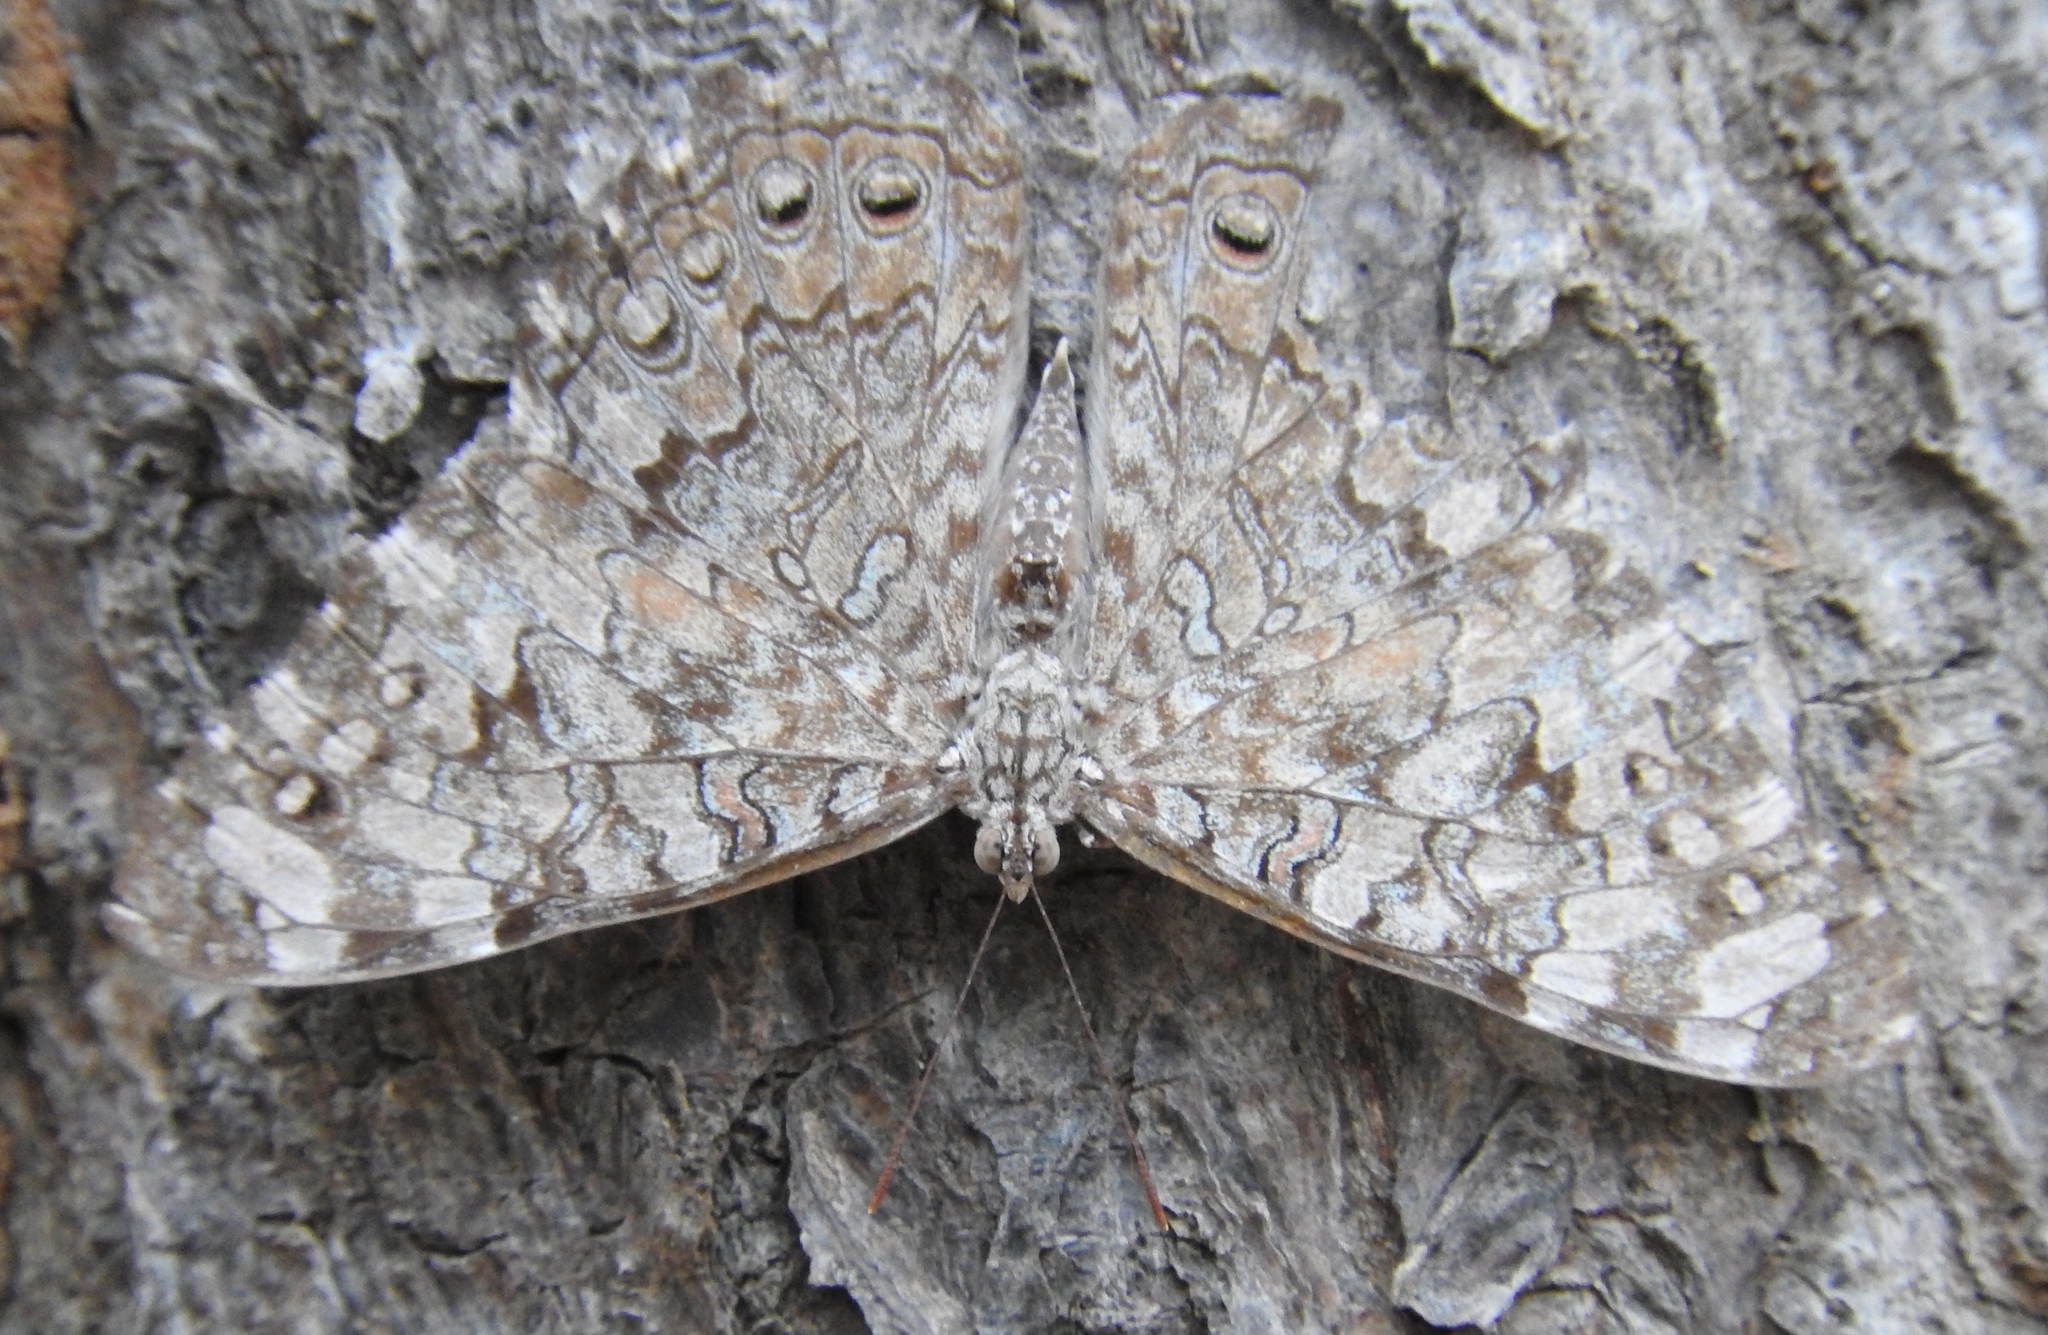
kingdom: Animalia
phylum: Arthropoda
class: Insecta
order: Lepidoptera
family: Nymphalidae
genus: Hamadryas
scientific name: Hamadryas februa
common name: Gray cracker
